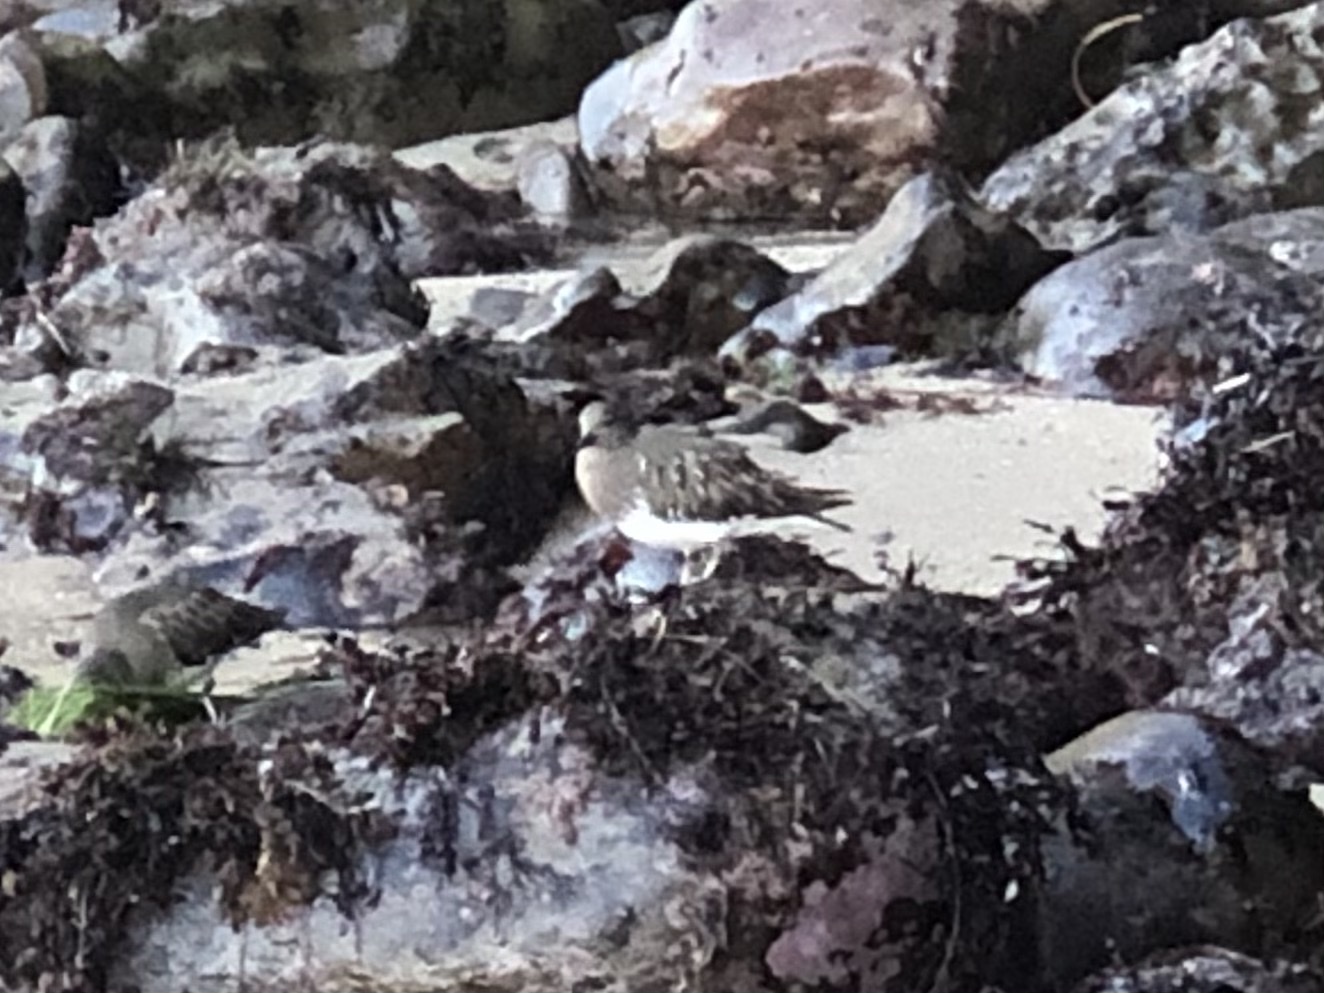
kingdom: Animalia
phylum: Chordata
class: Aves
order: Charadriiformes
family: Scolopacidae
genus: Arenaria
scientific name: Arenaria melanocephala
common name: Black turnstone
